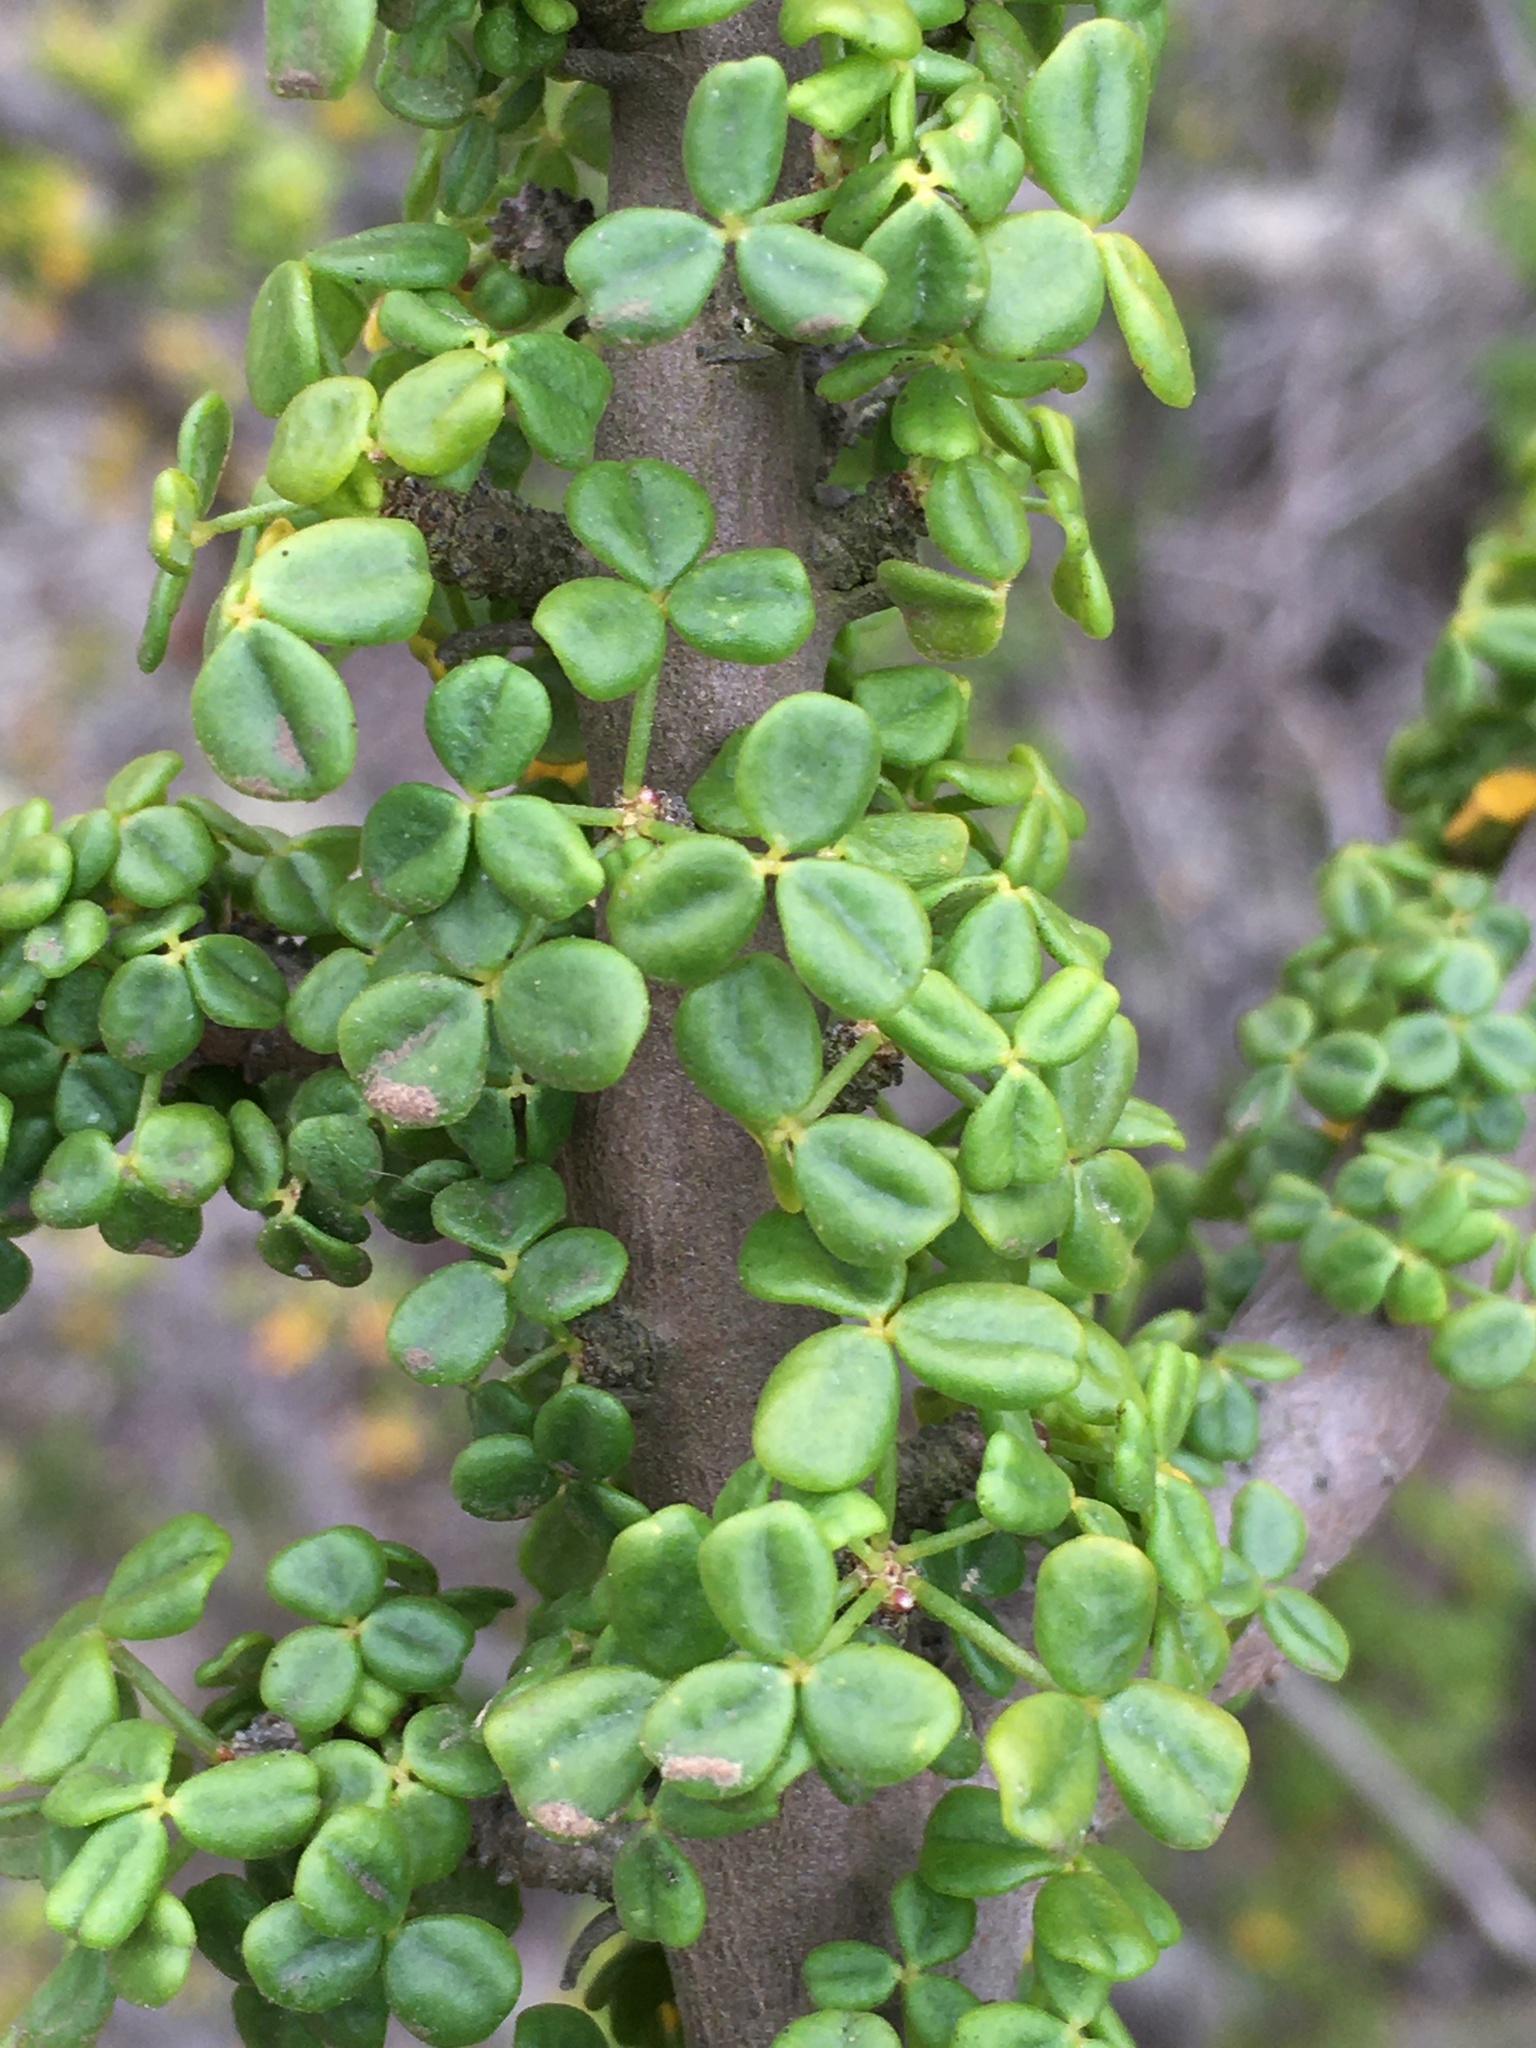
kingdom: Plantae
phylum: Tracheophyta
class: Magnoliopsida
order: Oxalidales
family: Oxalidaceae
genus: Oxalis
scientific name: Oxalis gigantea
